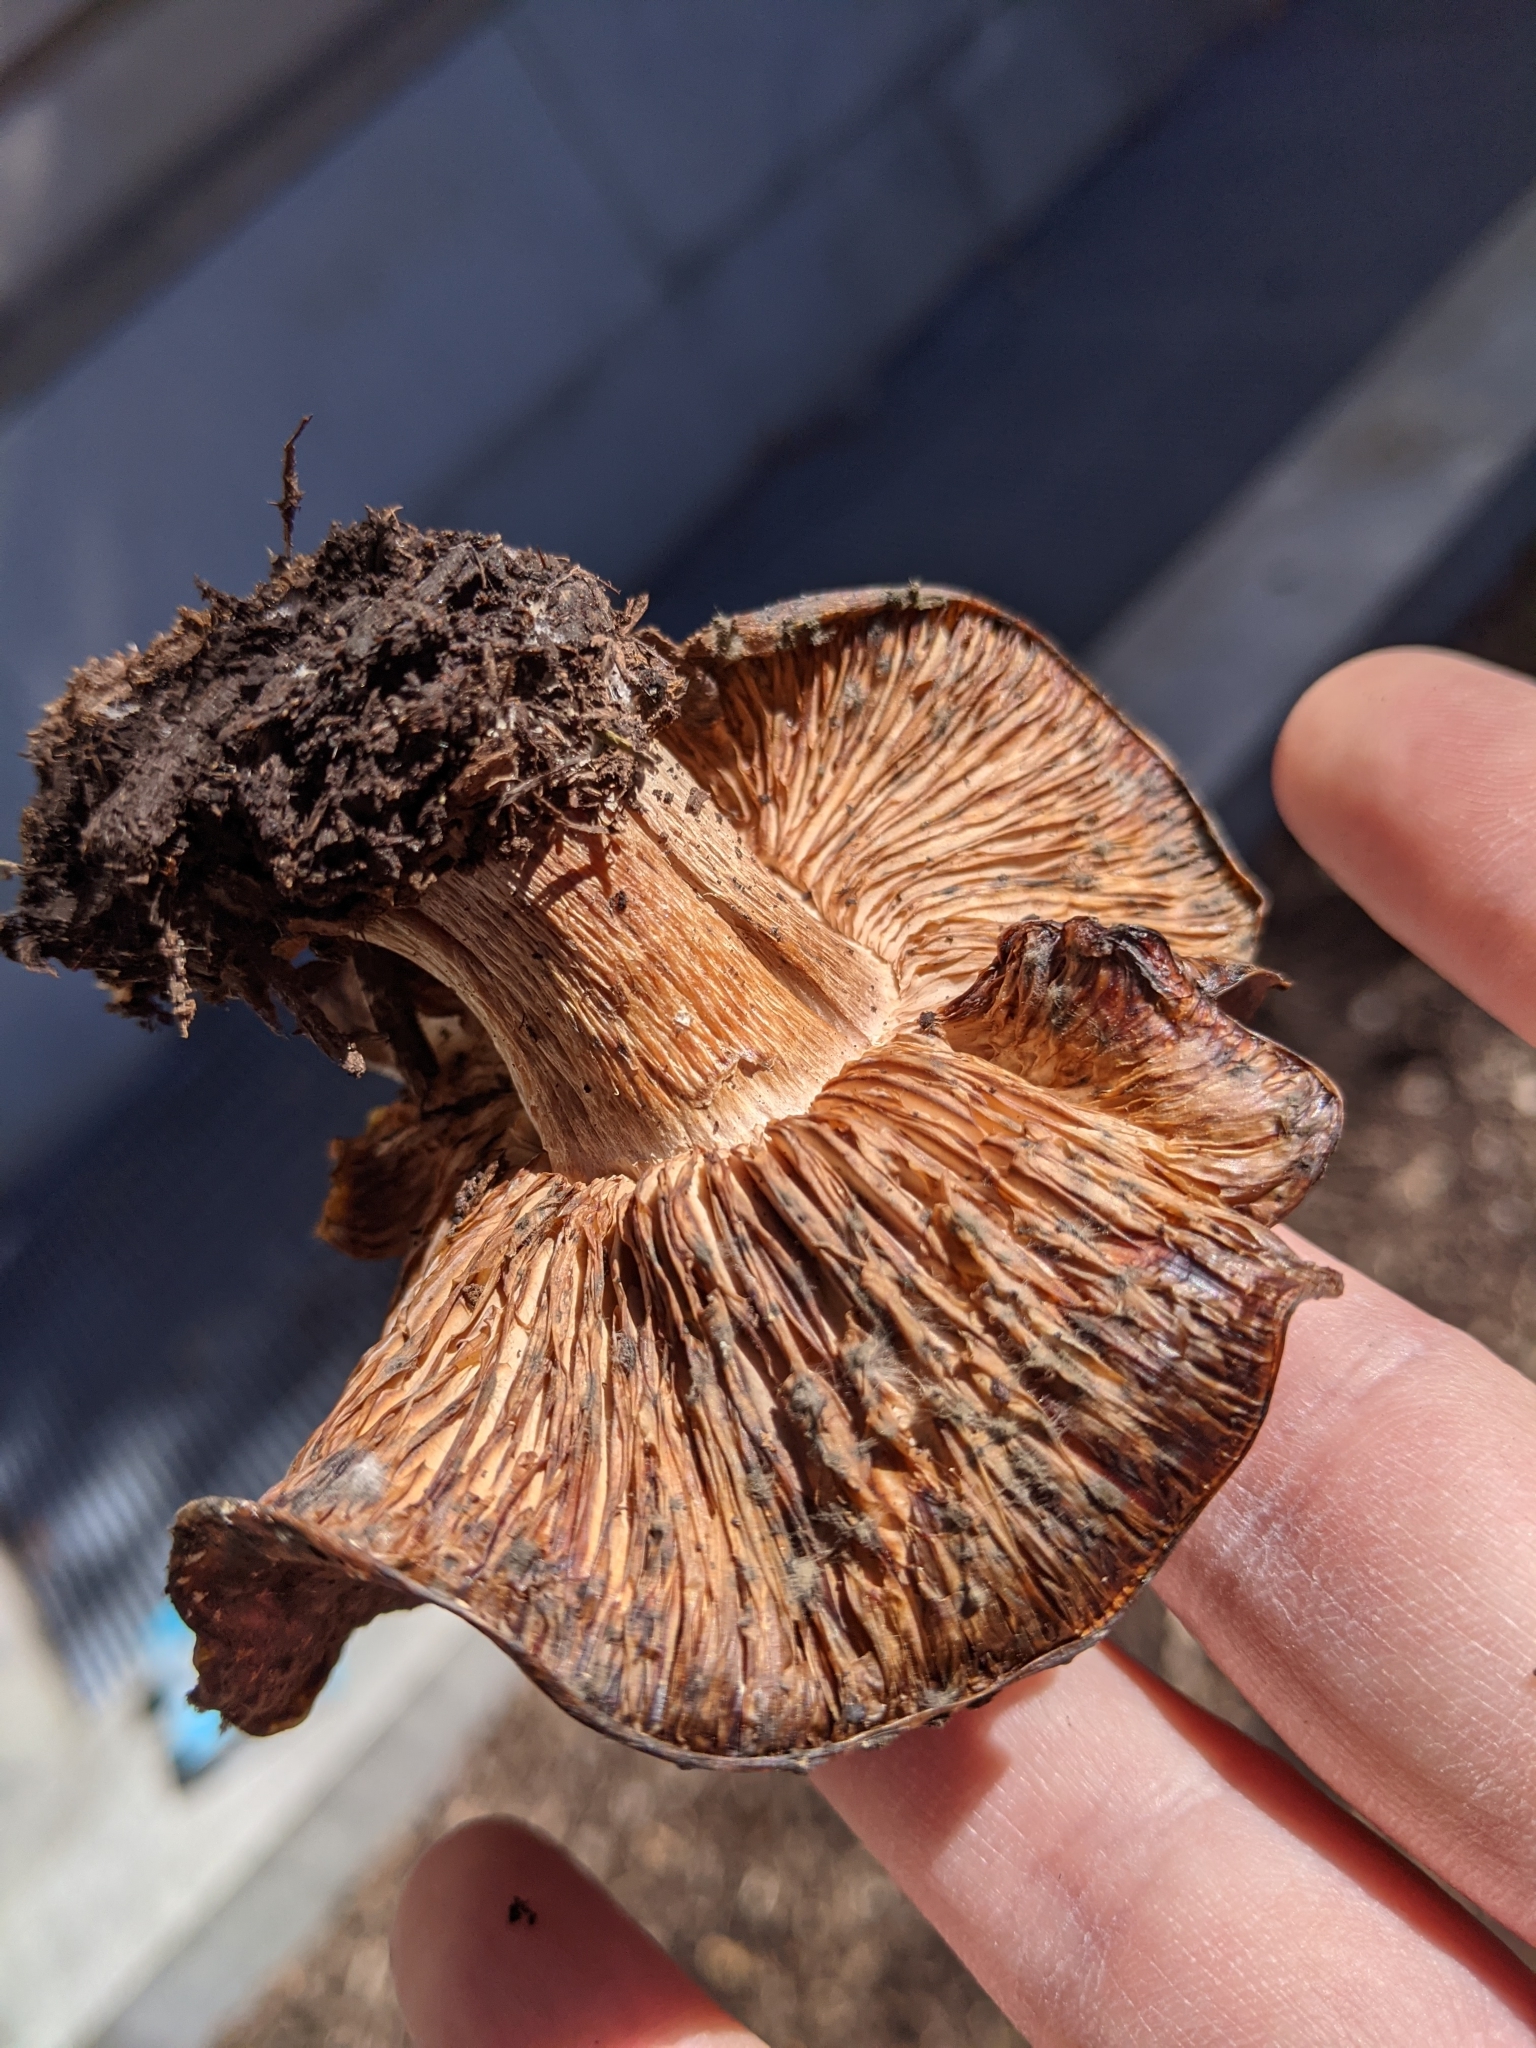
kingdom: Fungi
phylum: Basidiomycota
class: Agaricomycetes
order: Agaricales
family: Tricholomataceae
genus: Collybia
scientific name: Collybia
